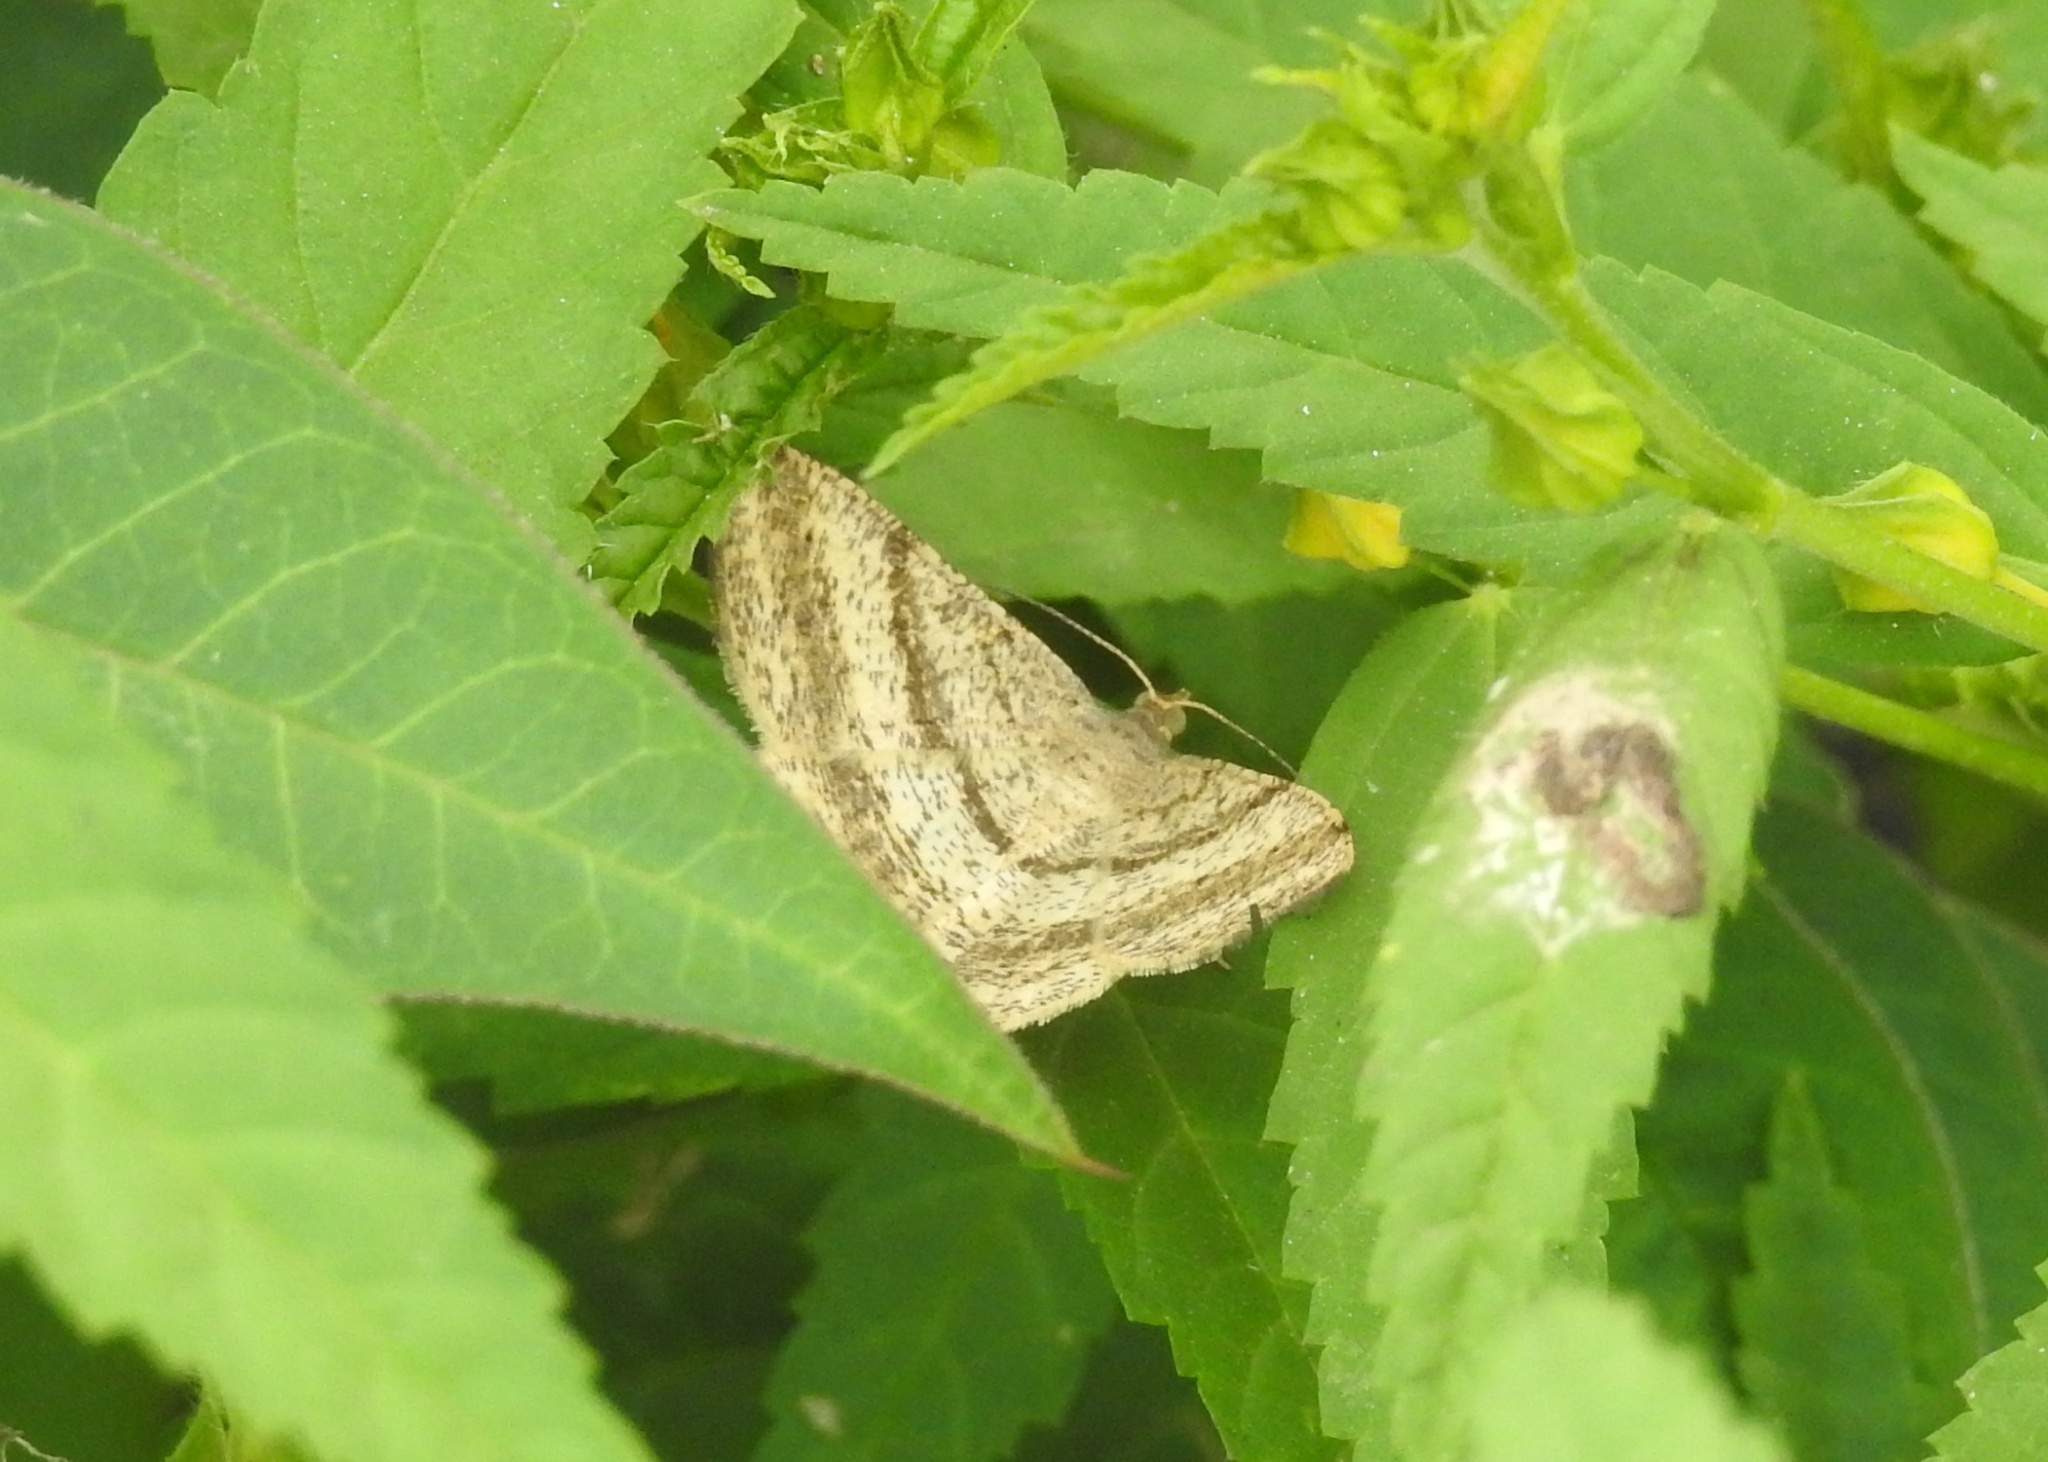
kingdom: Animalia
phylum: Arthropoda
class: Insecta
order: Lepidoptera
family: Geometridae
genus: Chiasmia
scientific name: Chiasmia fidoniata
